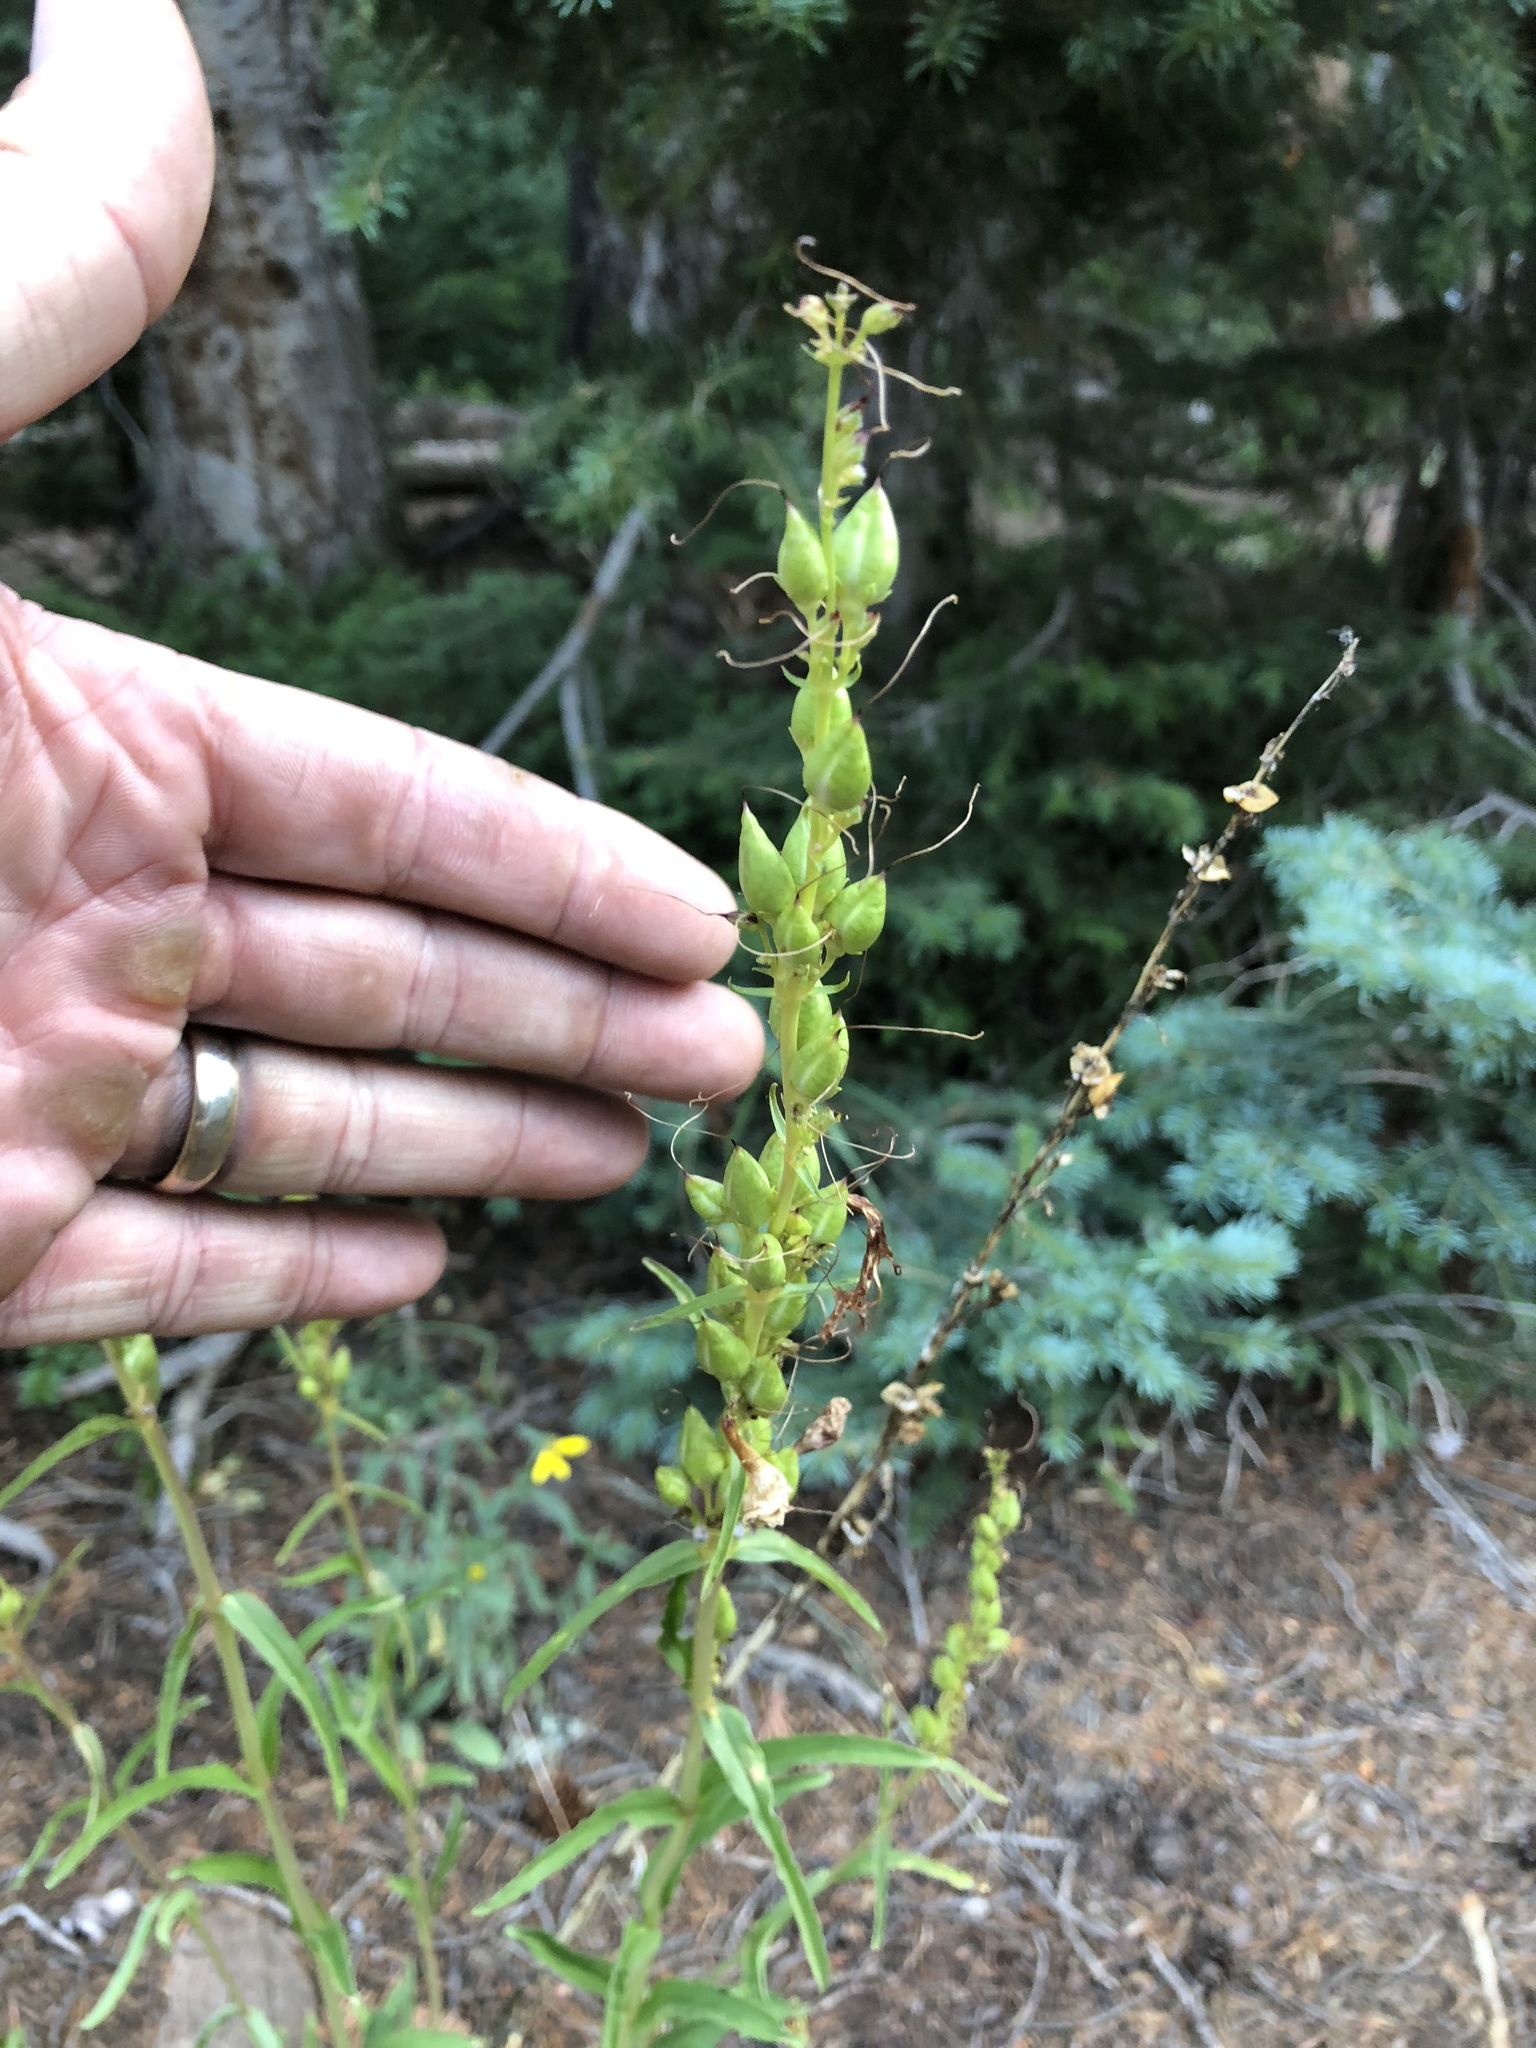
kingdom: Plantae
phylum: Tracheophyta
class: Magnoliopsida
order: Lamiales
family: Plantaginaceae
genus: Penstemon
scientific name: Penstemon strictus
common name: Rocky mountain penstemon
